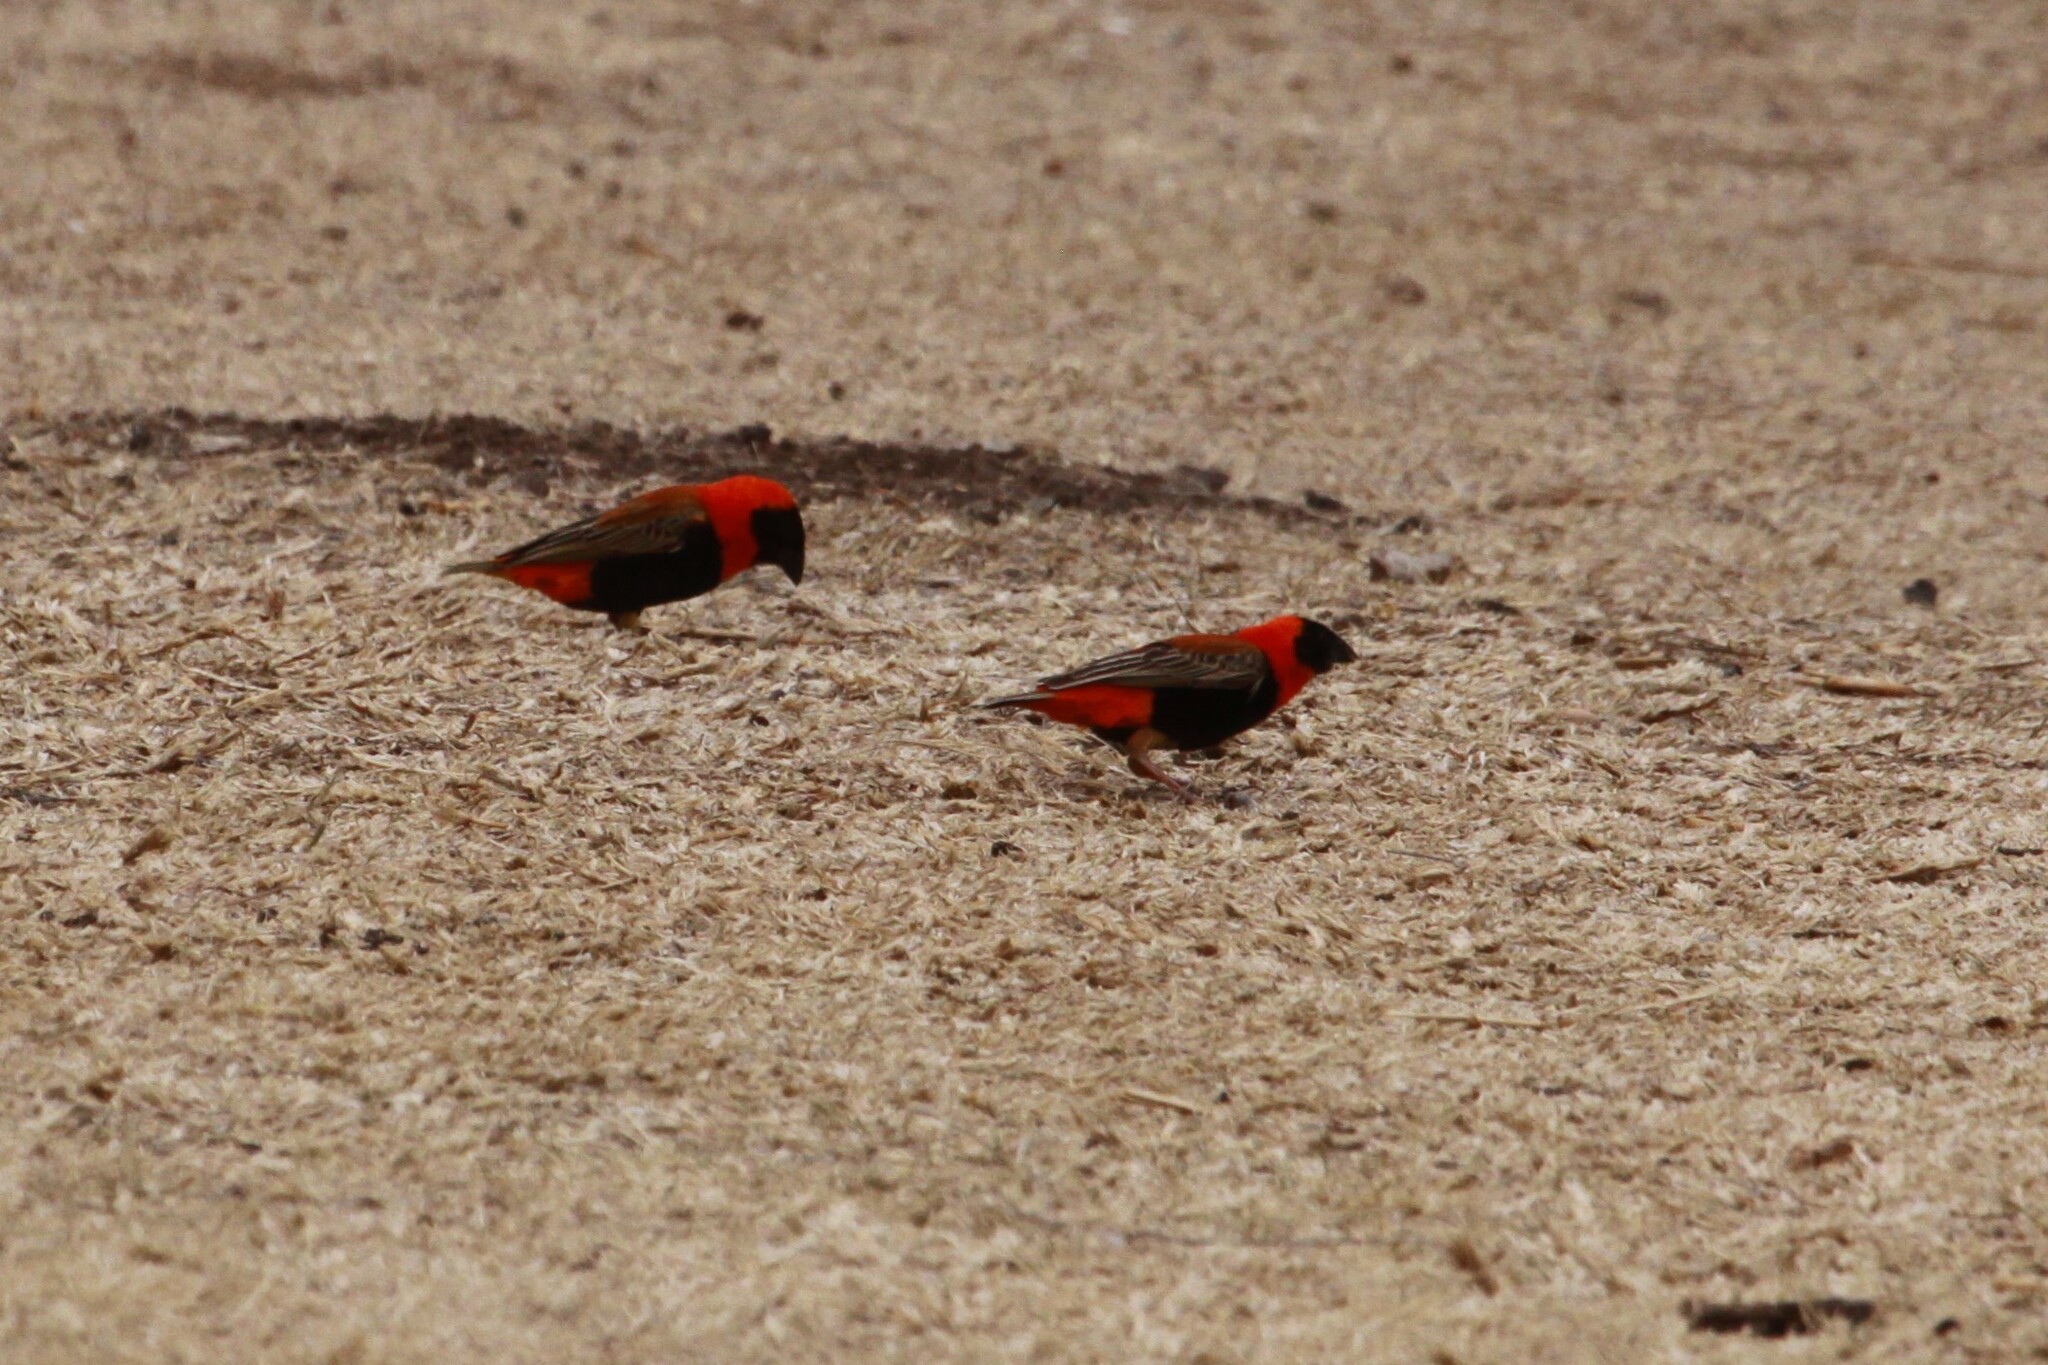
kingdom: Animalia
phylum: Chordata
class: Aves
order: Passeriformes
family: Ploceidae
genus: Euplectes
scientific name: Euplectes orix
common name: Southern red bishop
